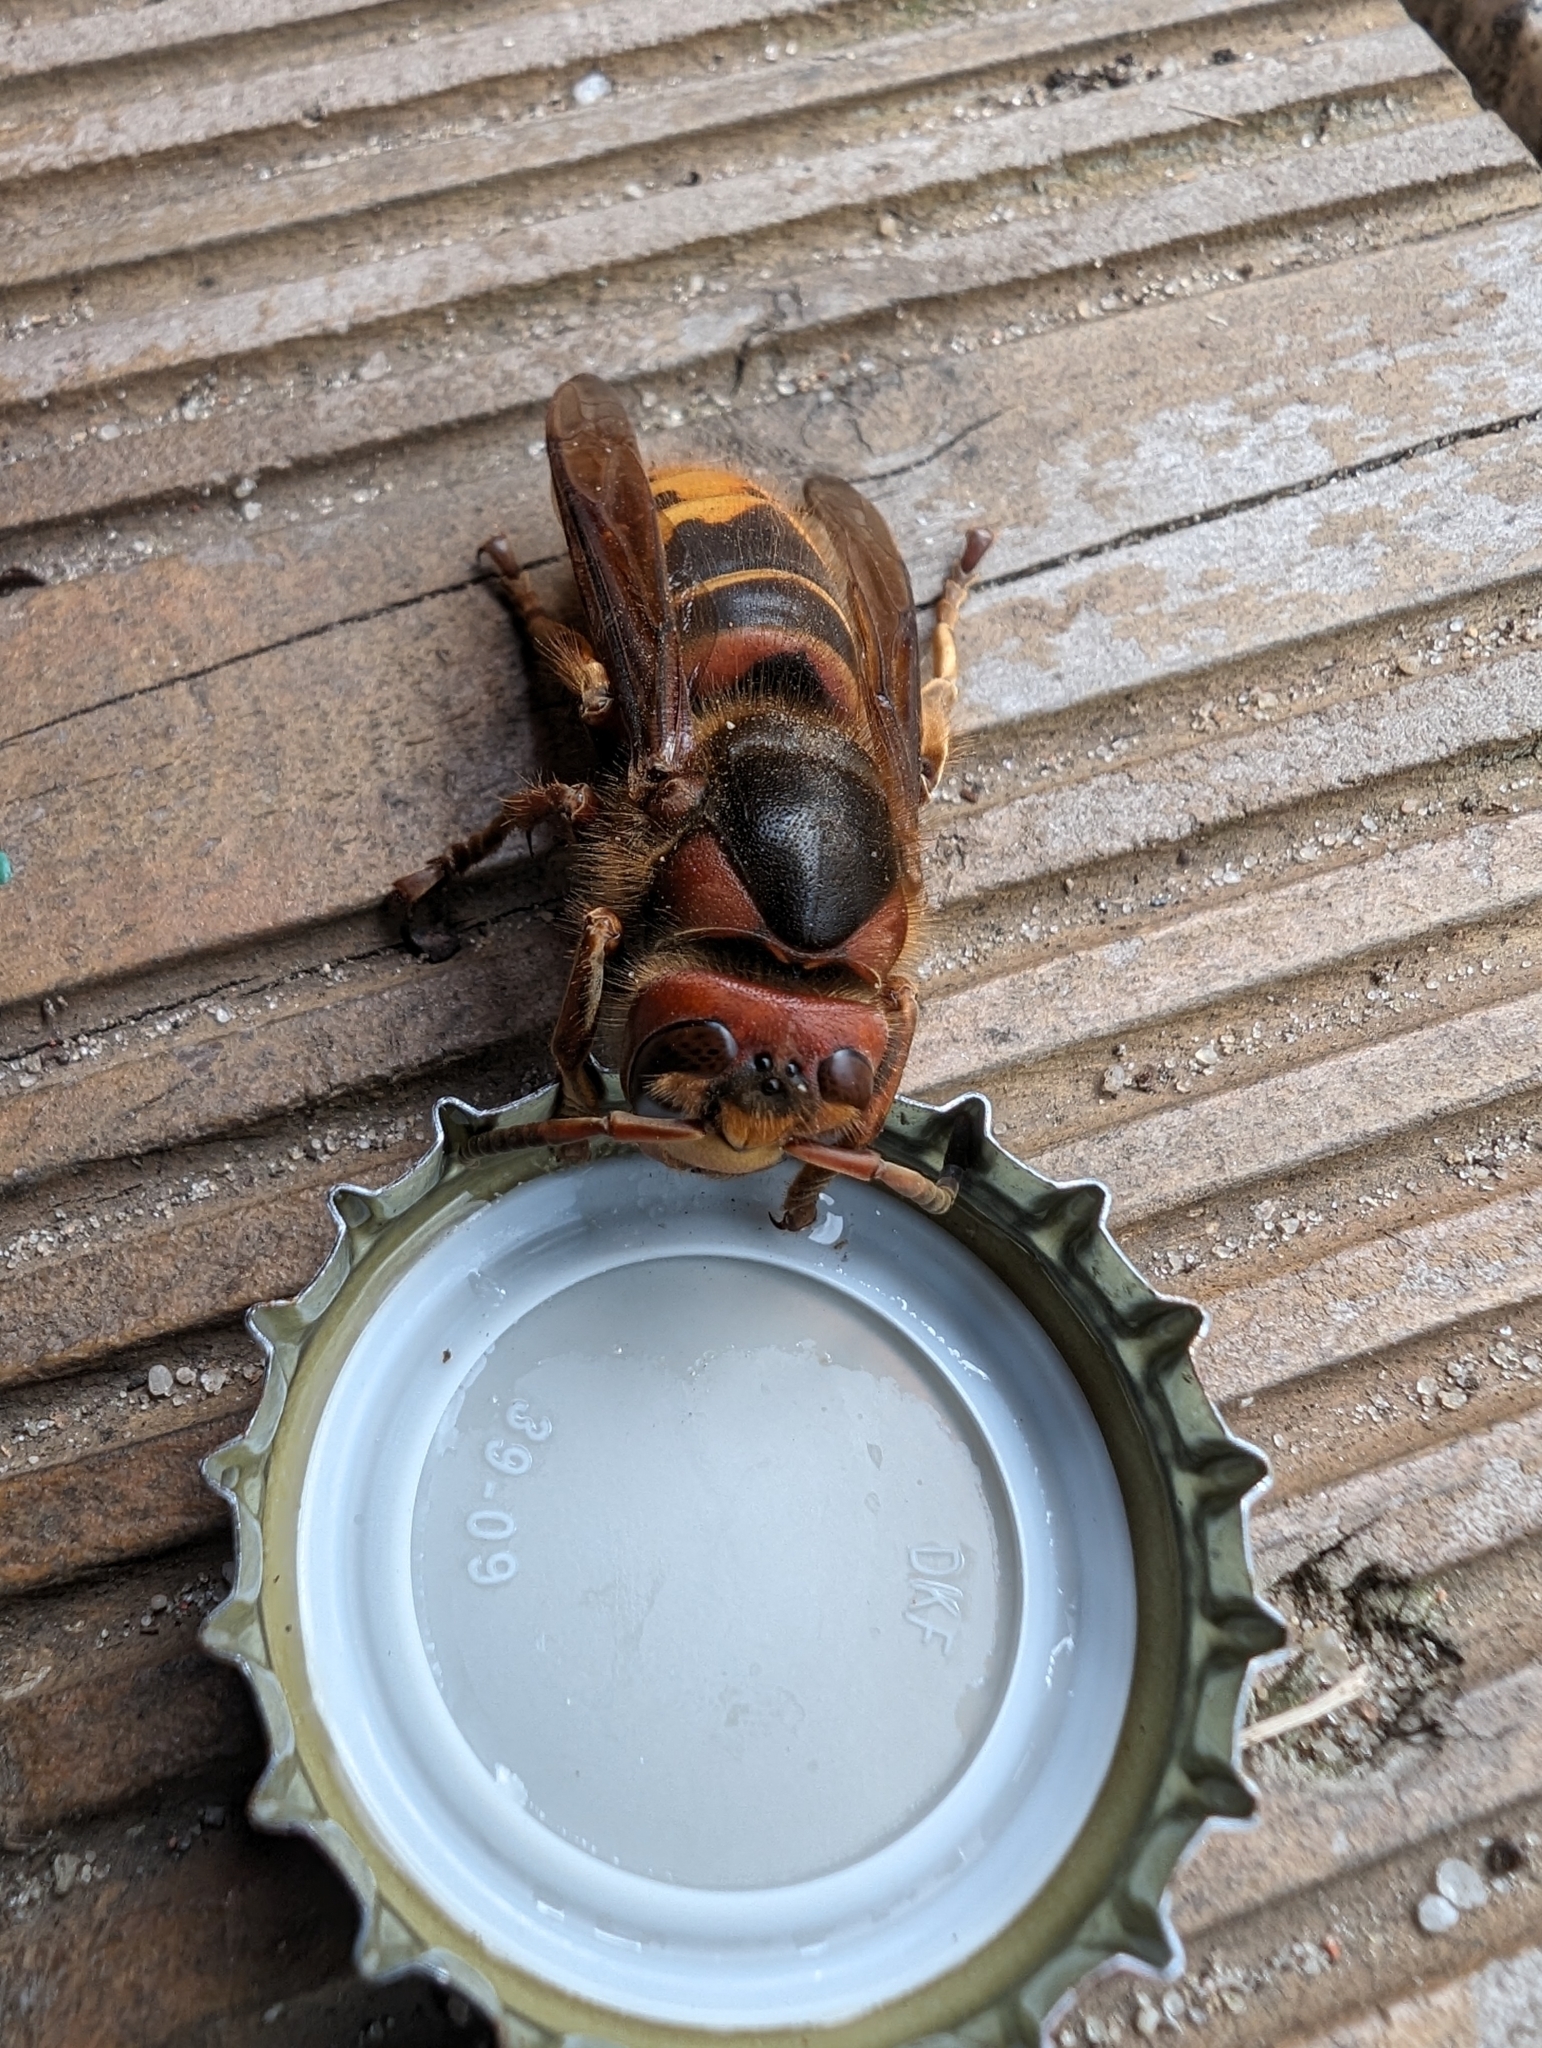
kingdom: Animalia
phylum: Arthropoda
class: Insecta
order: Hymenoptera
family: Vespidae
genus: Vespa
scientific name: Vespa crabro
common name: Hornet
